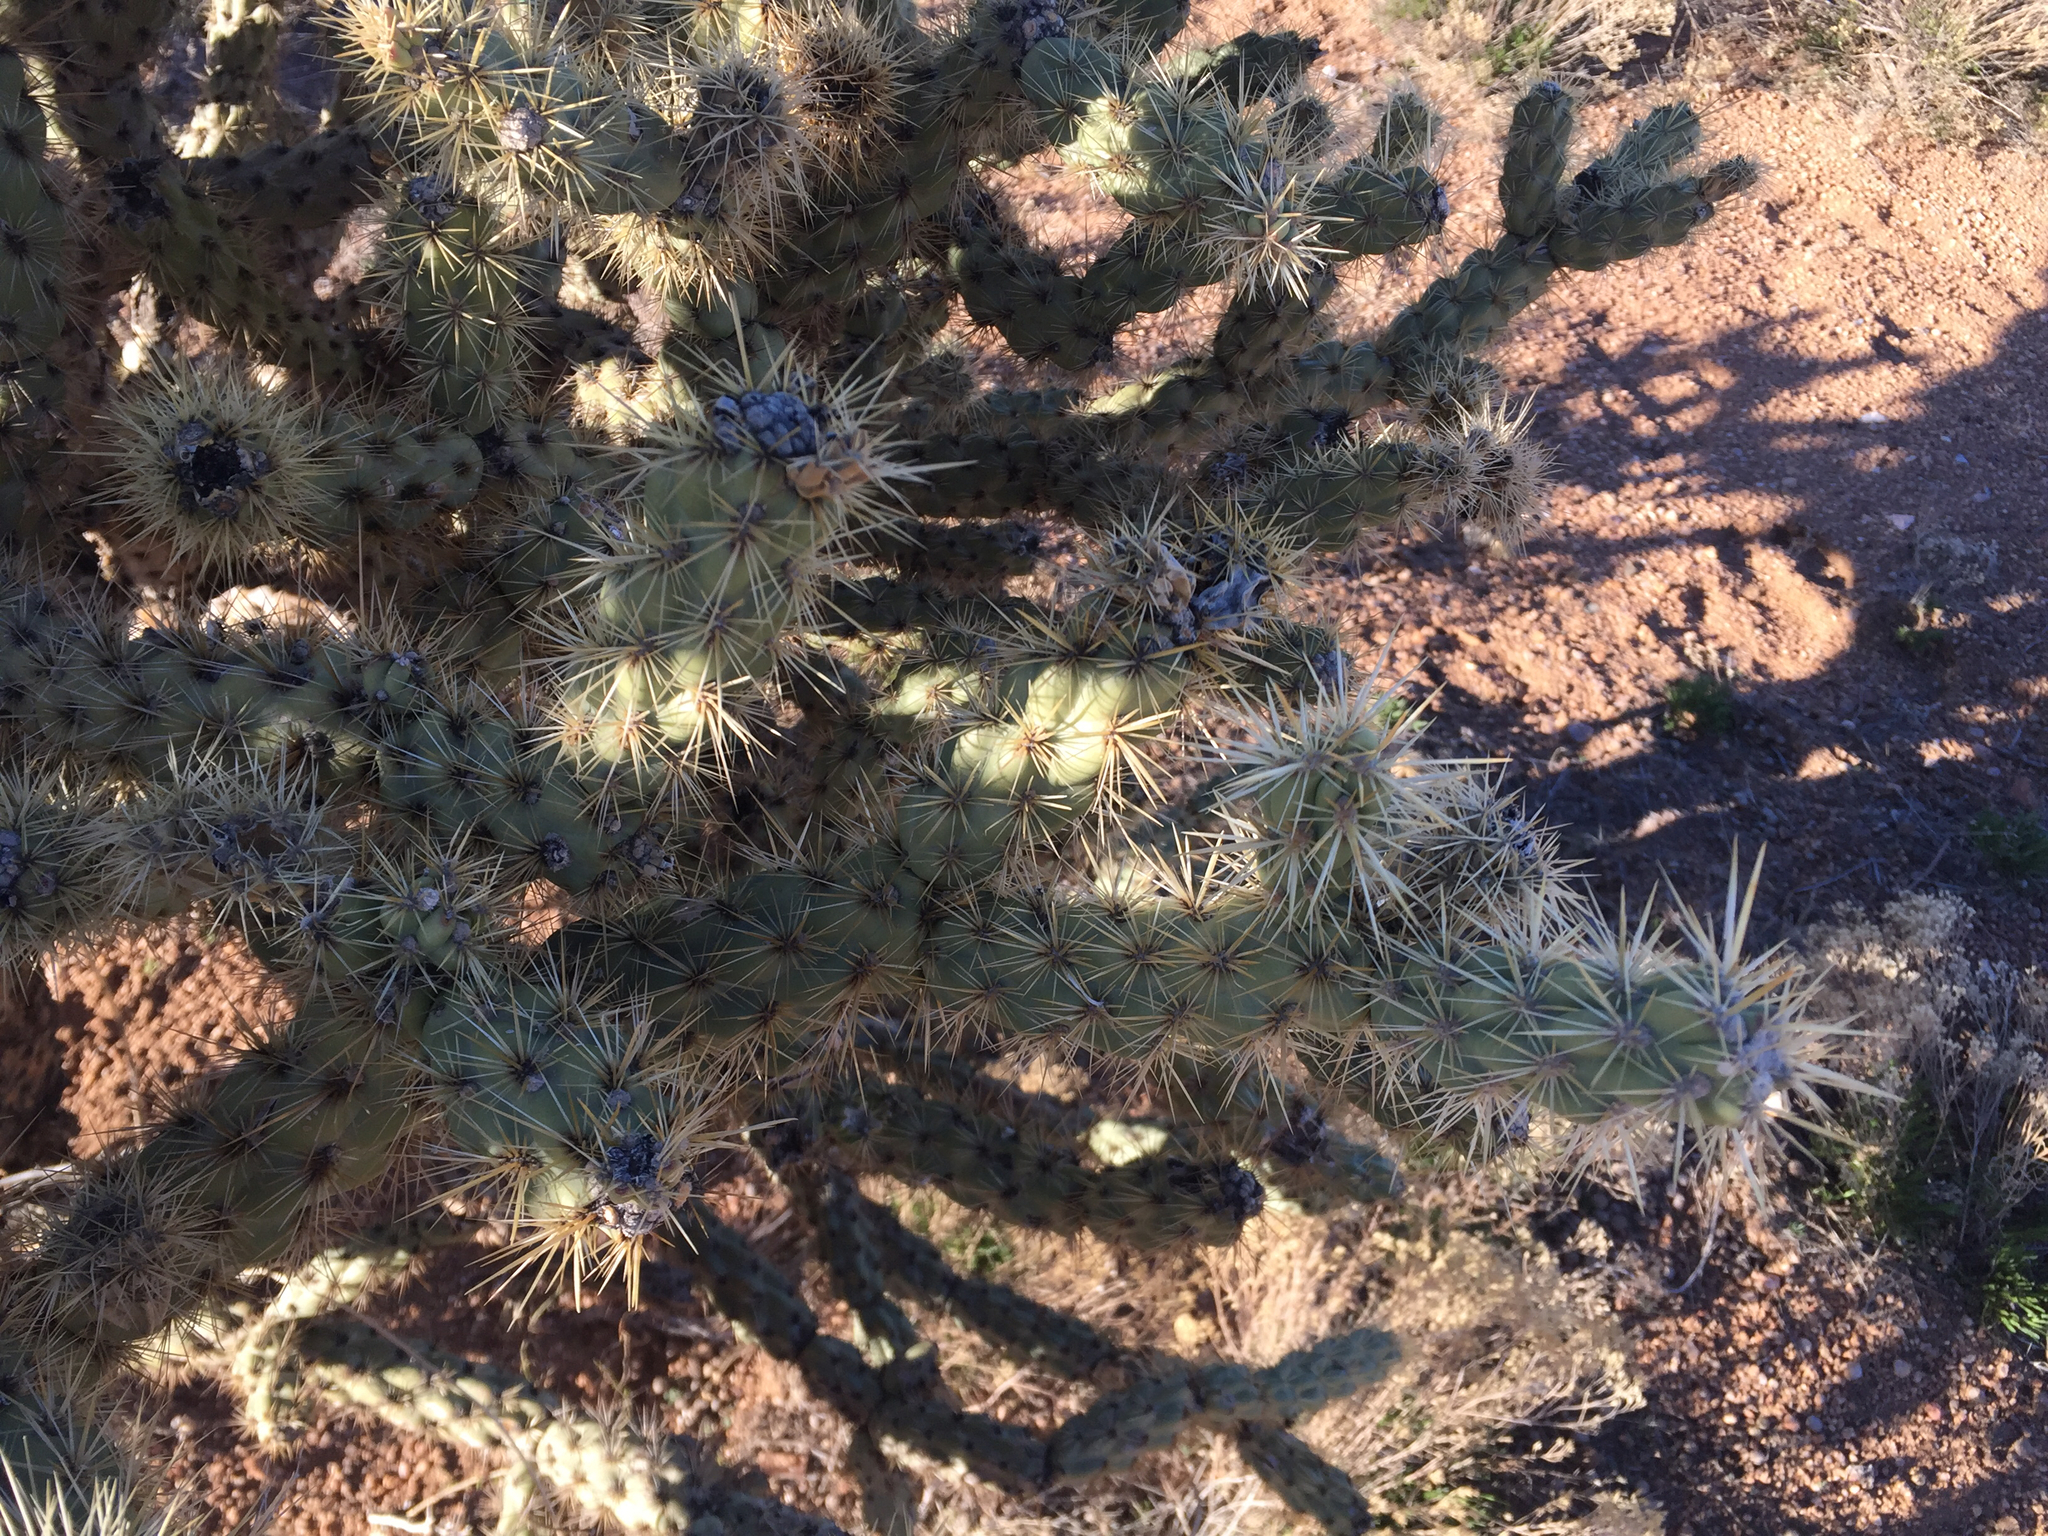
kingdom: Plantae
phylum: Tracheophyta
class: Magnoliopsida
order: Caryophyllales
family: Cactaceae
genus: Cylindropuntia
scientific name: Cylindropuntia acanthocarpa
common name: Buckhorn cholla
